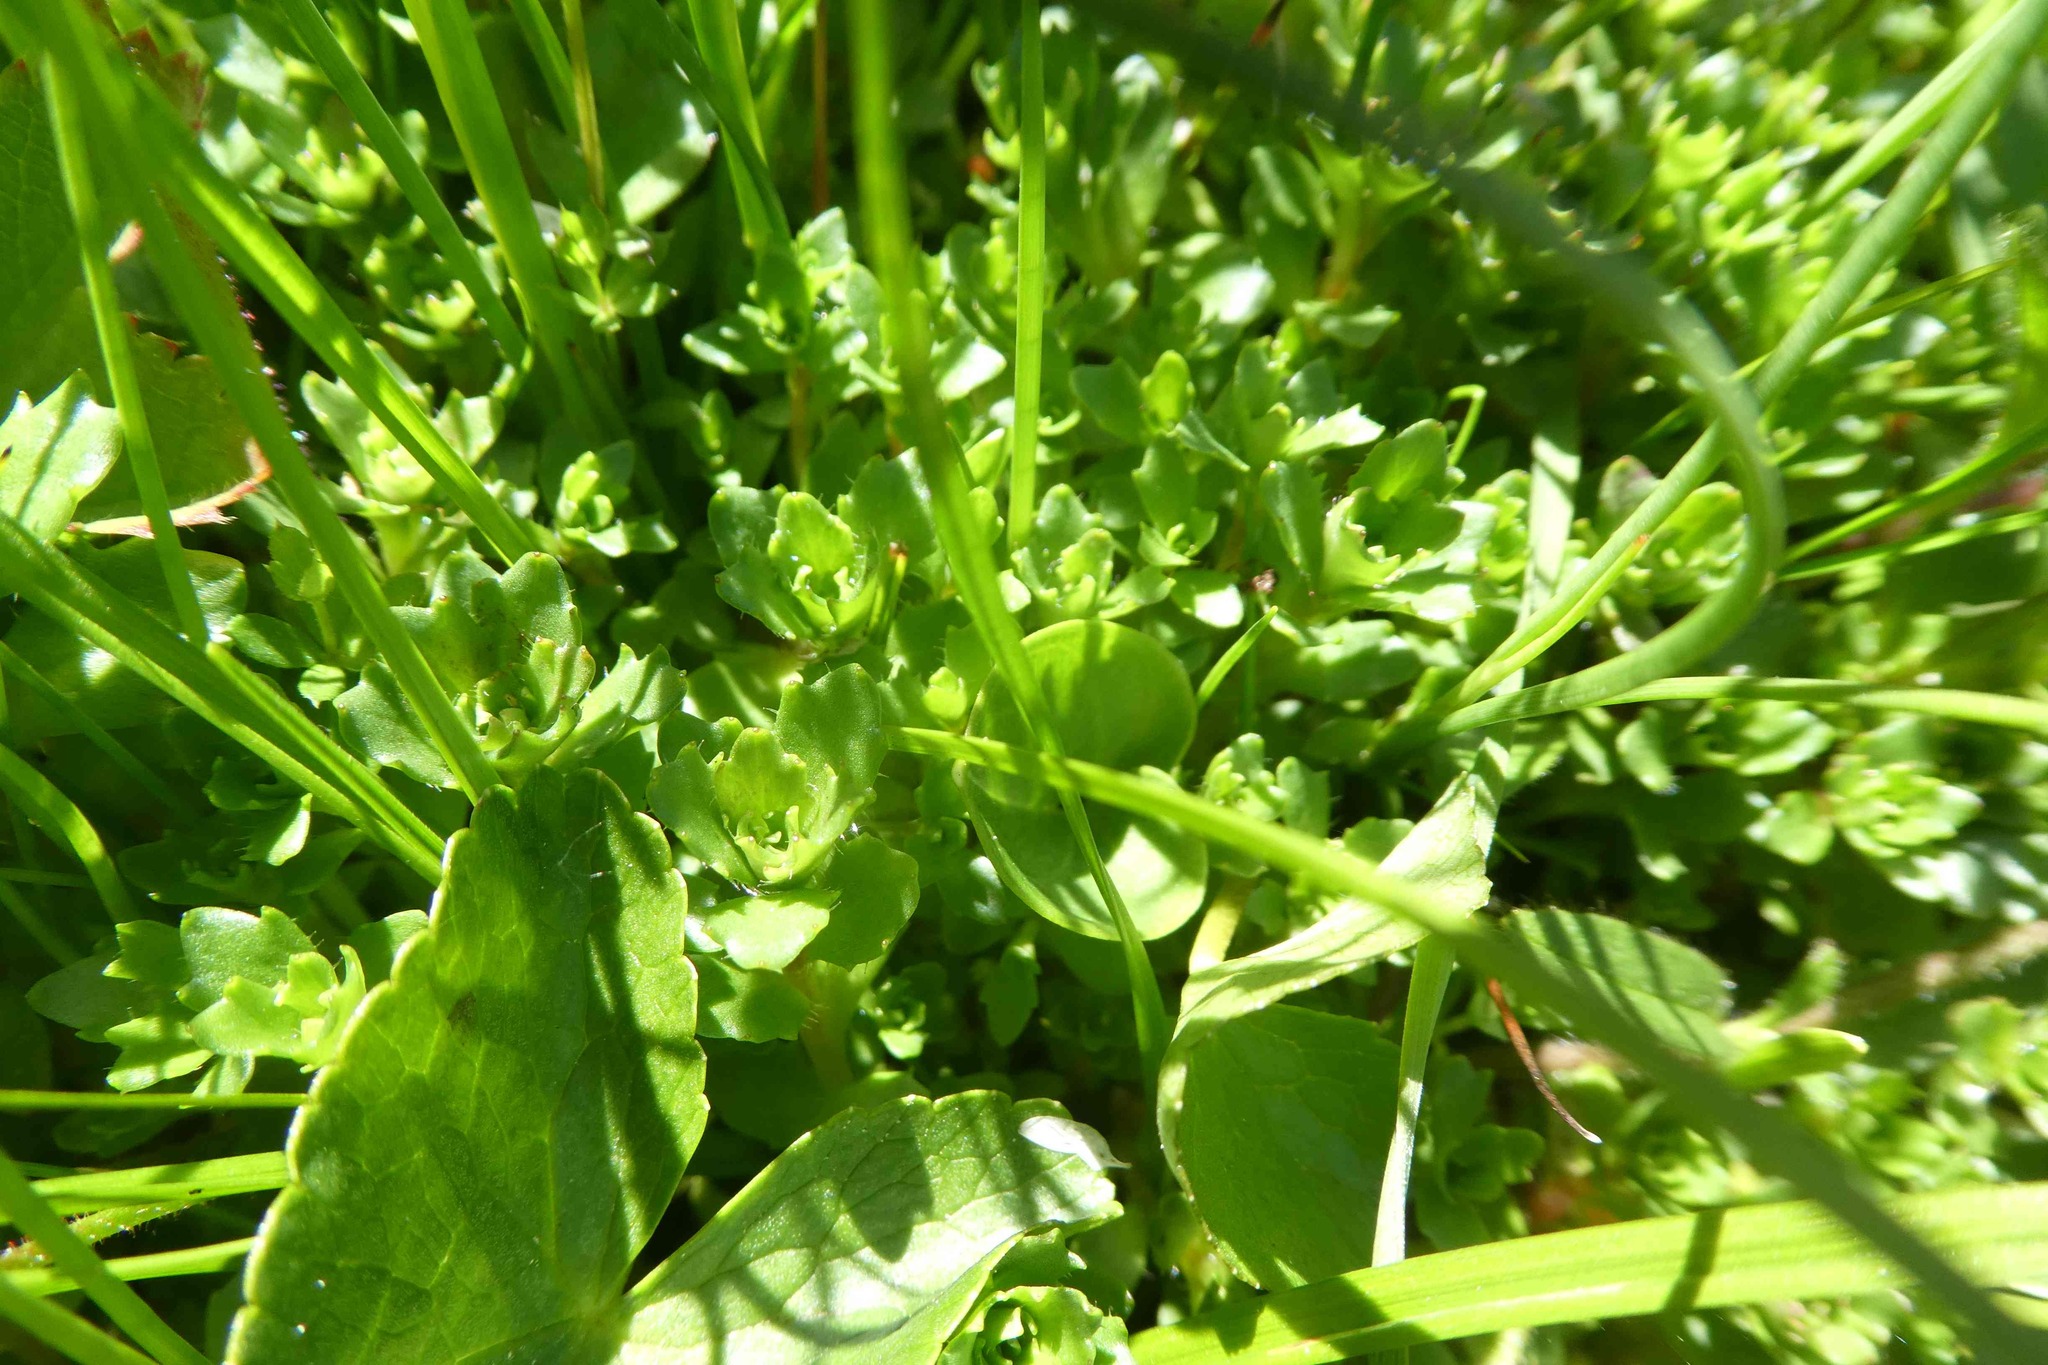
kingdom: Plantae
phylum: Tracheophyta
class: Magnoliopsida
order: Saxifragales
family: Saxifragaceae
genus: Micranthes
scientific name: Micranthes stellaris
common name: Starry saxifrage
